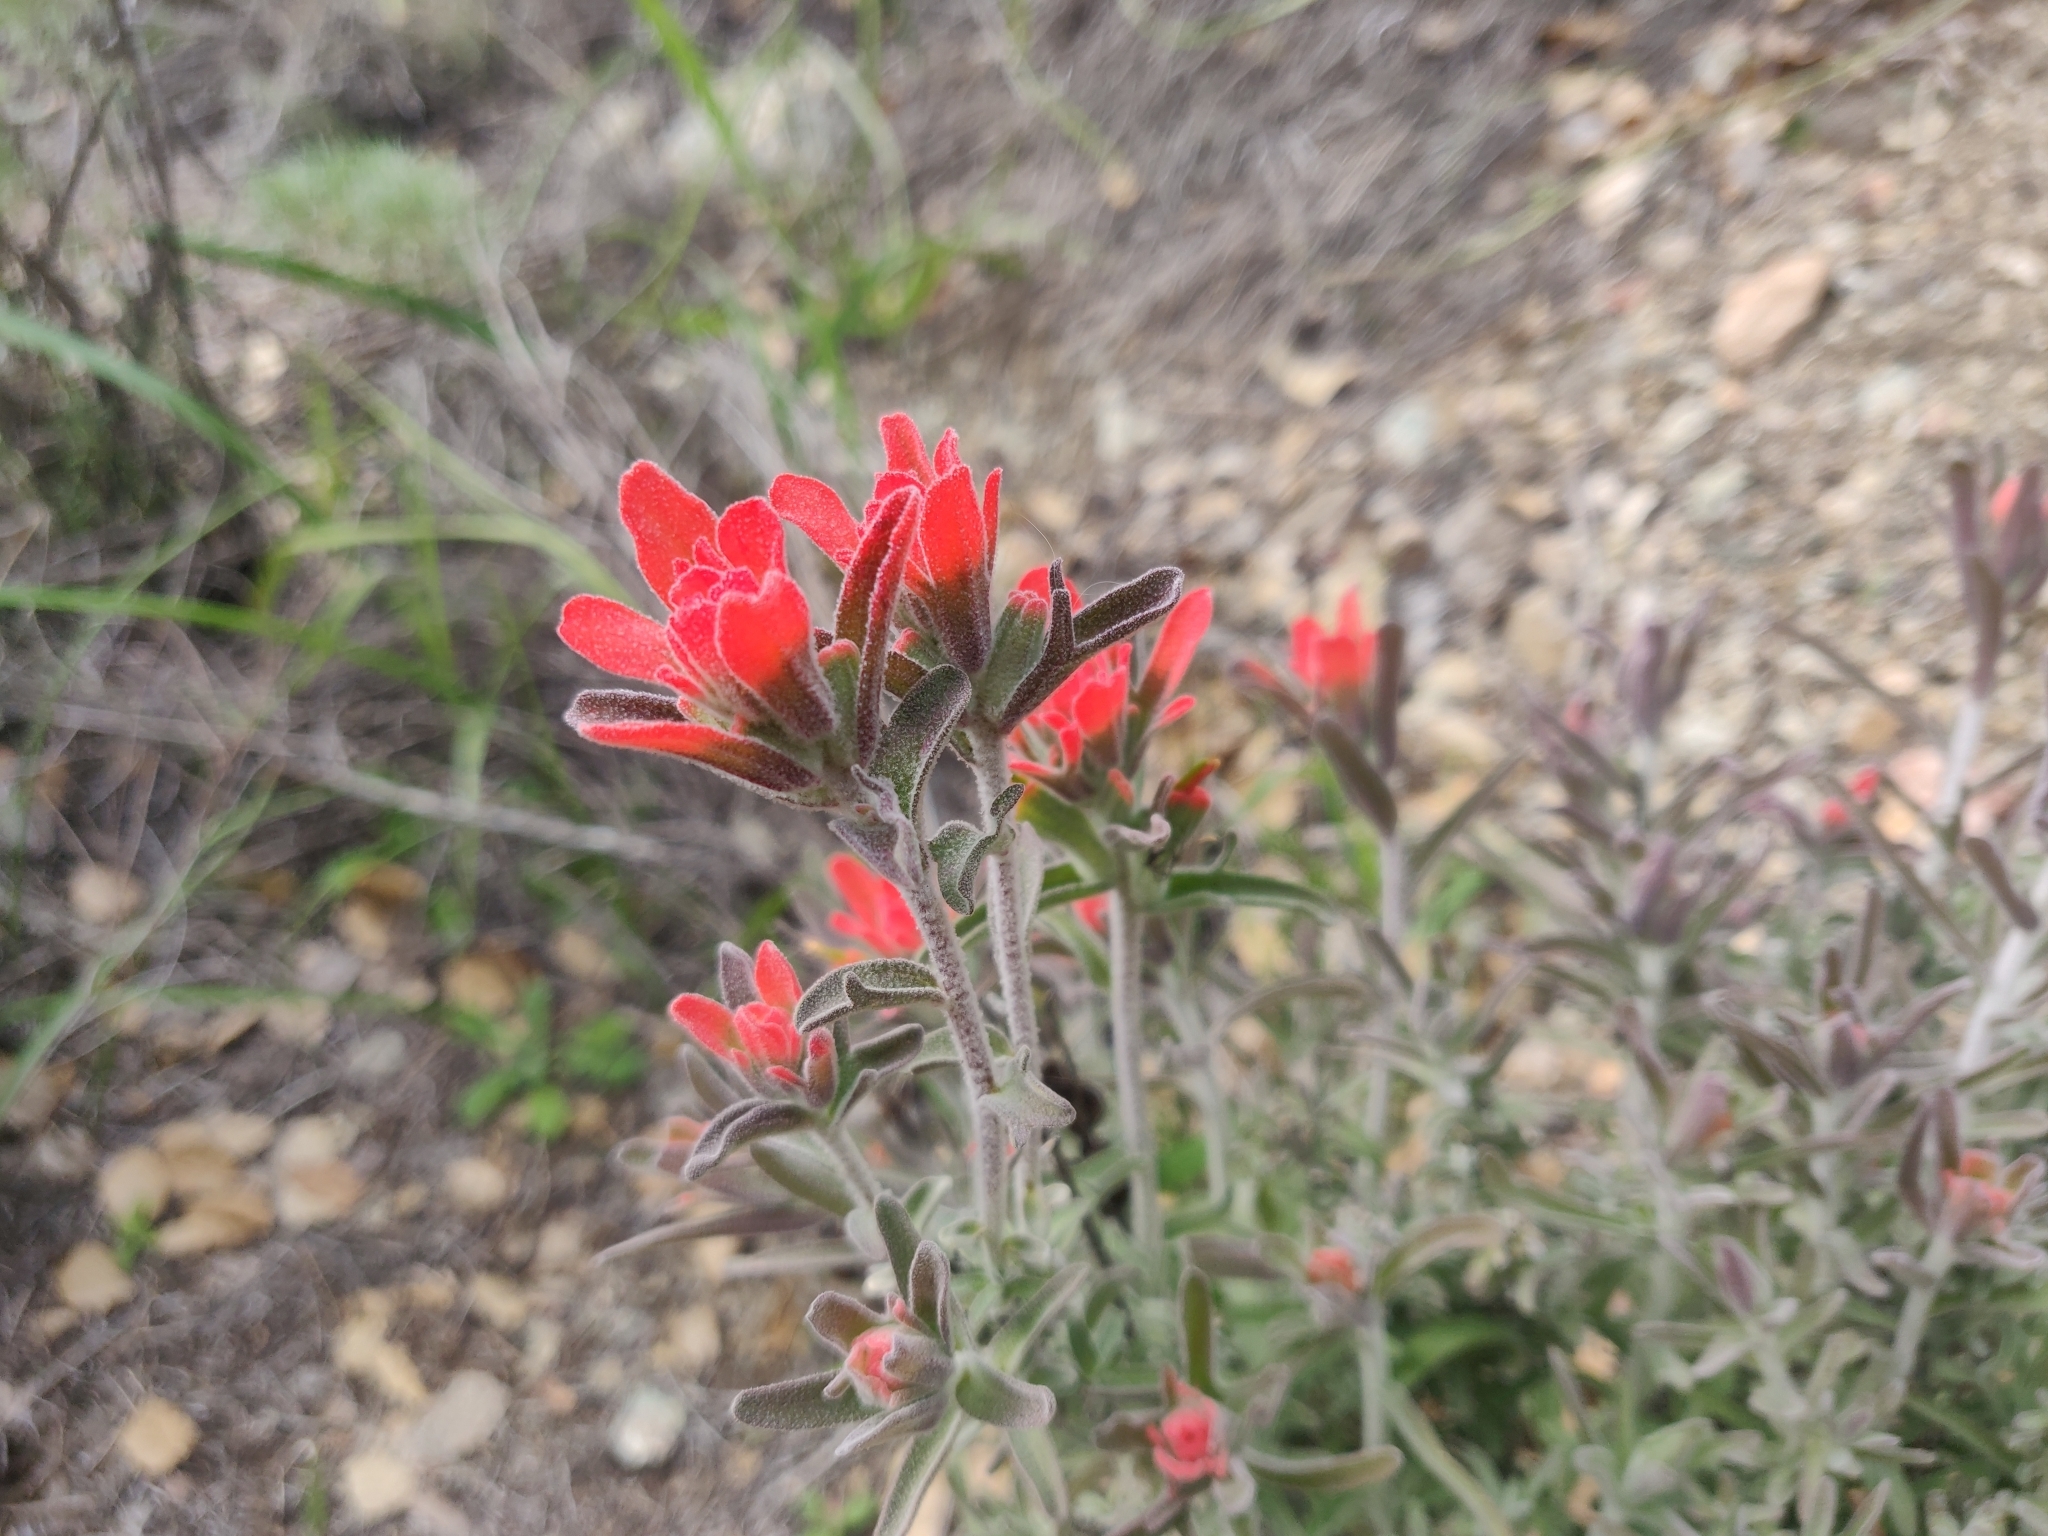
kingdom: Plantae
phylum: Tracheophyta
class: Magnoliopsida
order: Lamiales
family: Orobanchaceae
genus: Castilleja
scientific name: Castilleja foliolosa
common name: Woolly indian paintbrush
